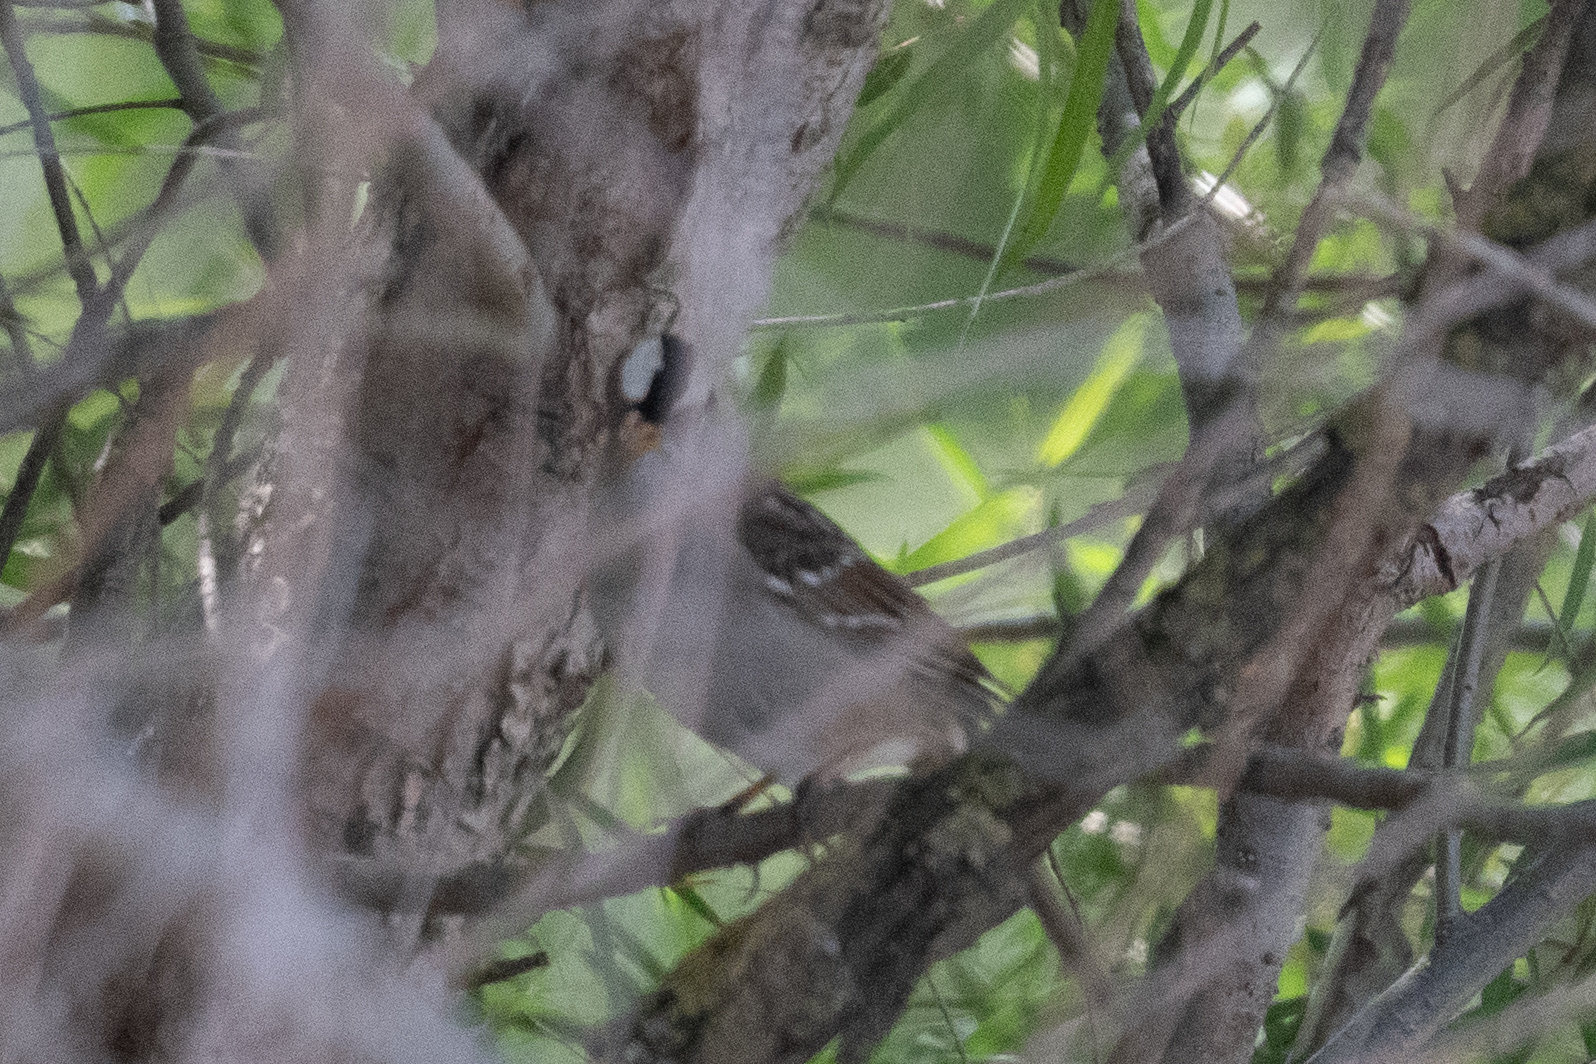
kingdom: Animalia
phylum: Chordata
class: Aves
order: Passeriformes
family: Passerellidae
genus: Zonotrichia
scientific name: Zonotrichia leucophrys
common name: White-crowned sparrow
